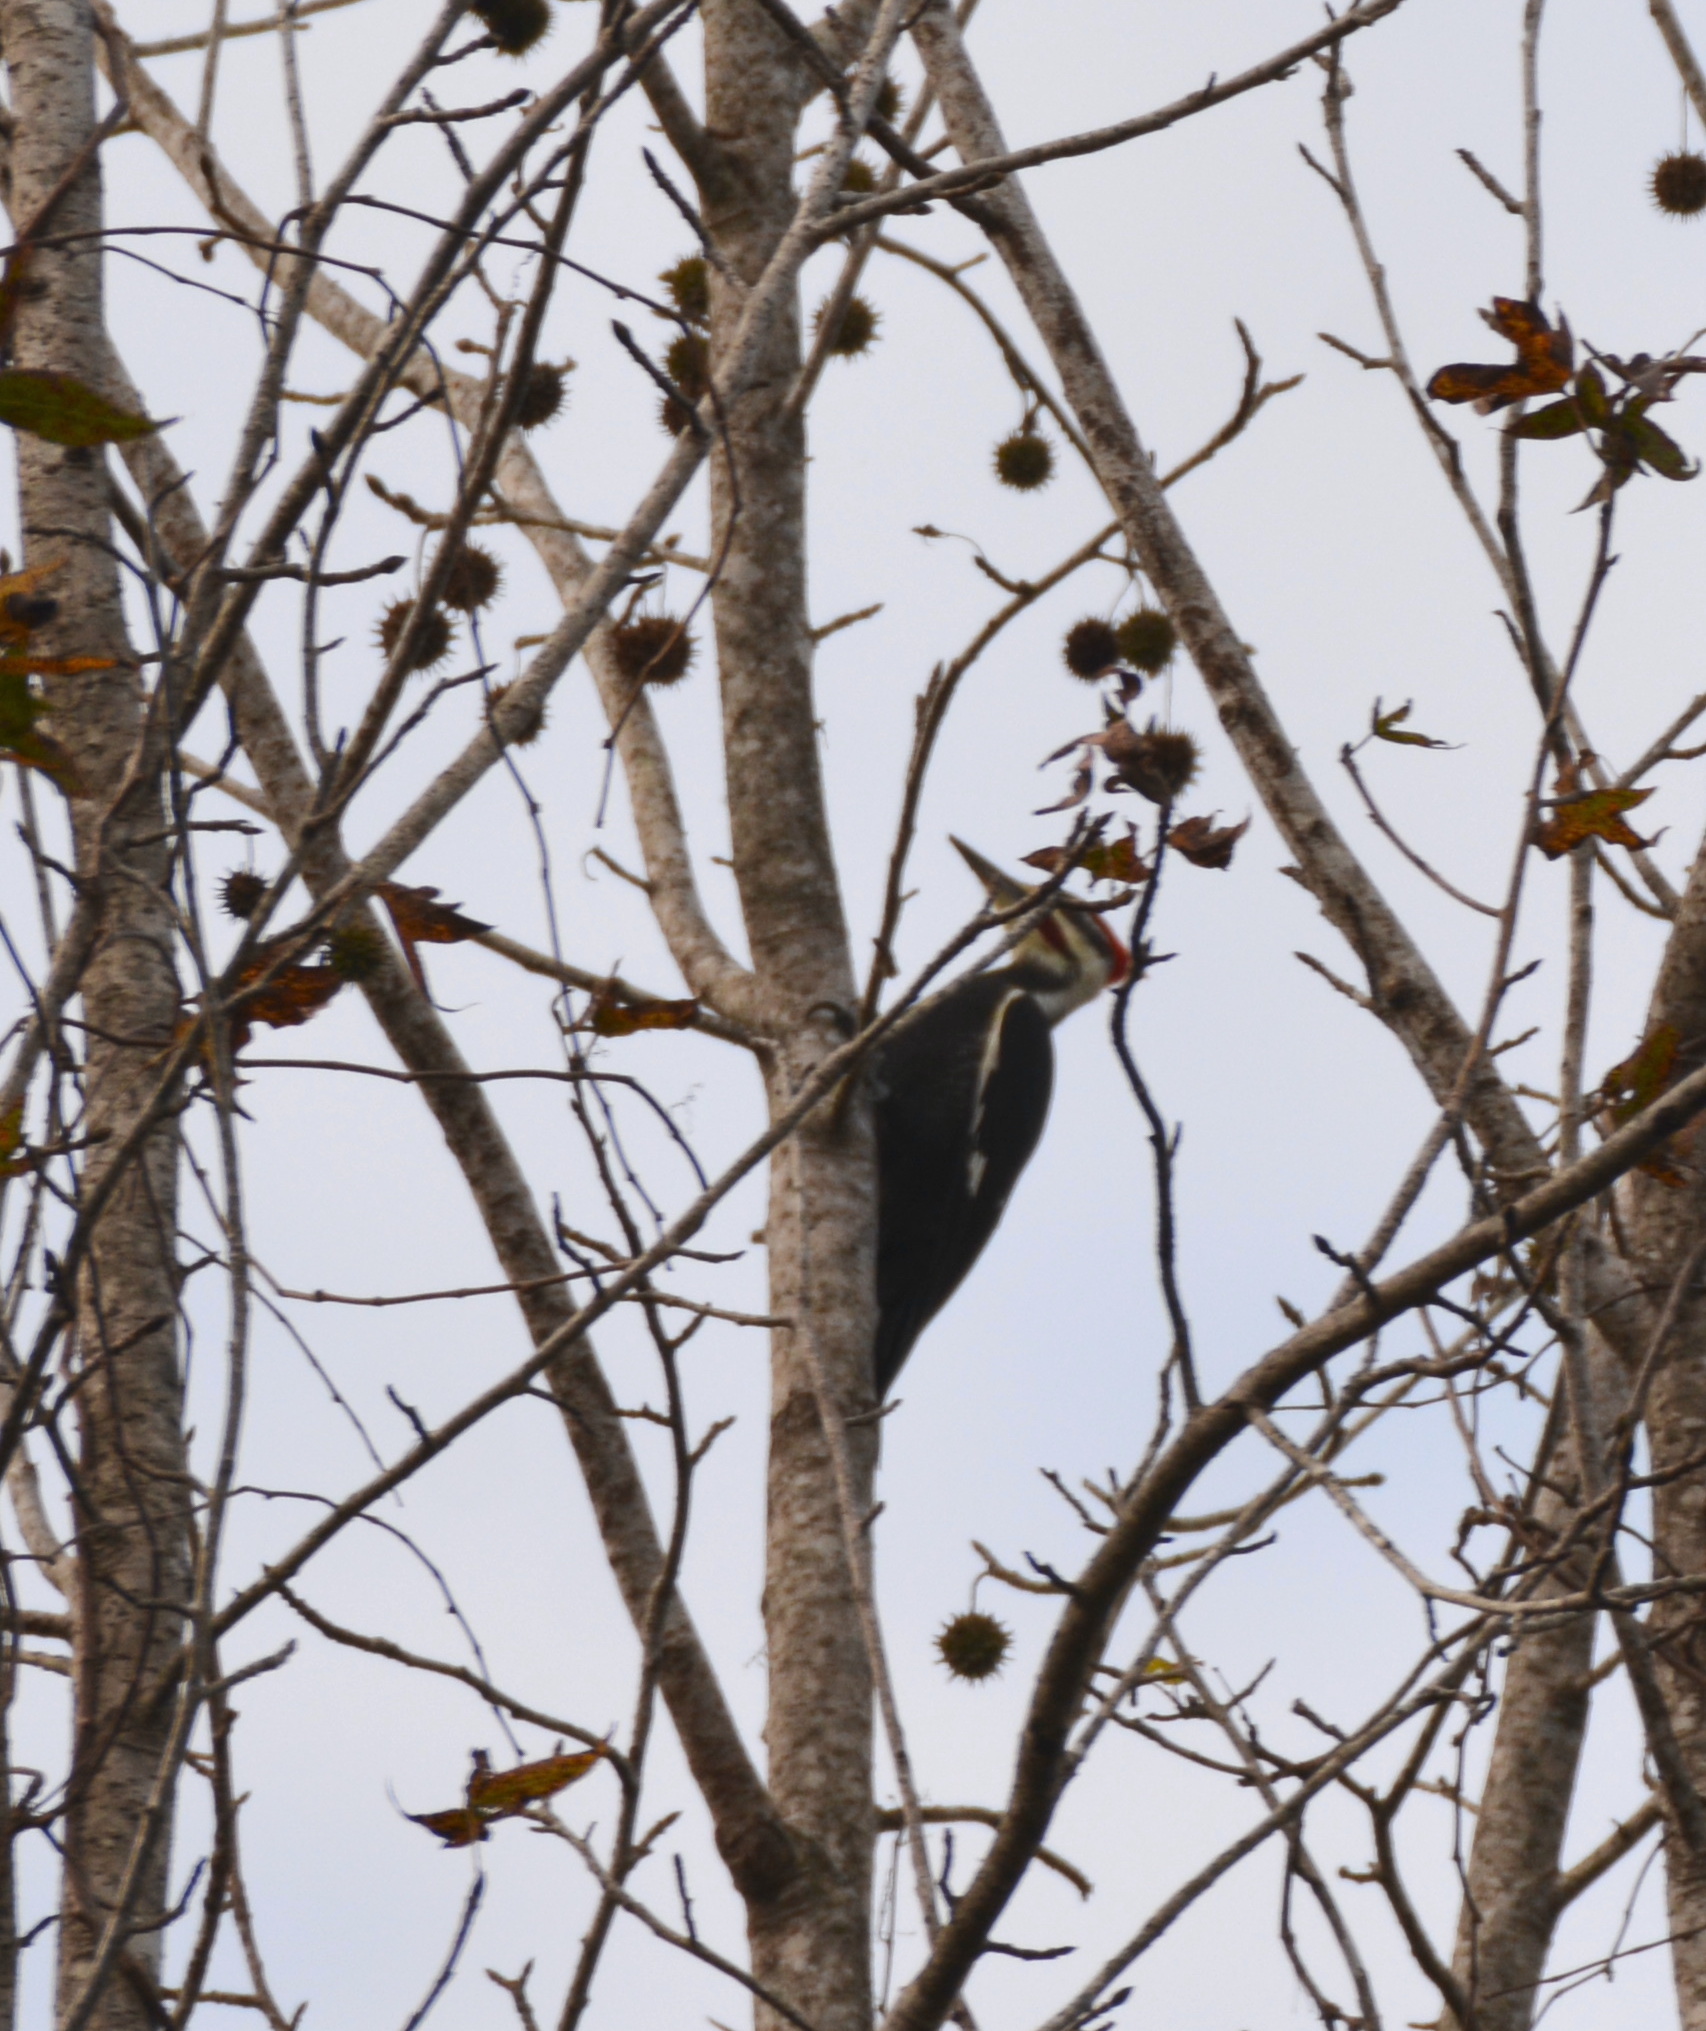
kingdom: Animalia
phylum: Chordata
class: Aves
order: Piciformes
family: Picidae
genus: Dryocopus
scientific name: Dryocopus pileatus
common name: Pileated woodpecker
